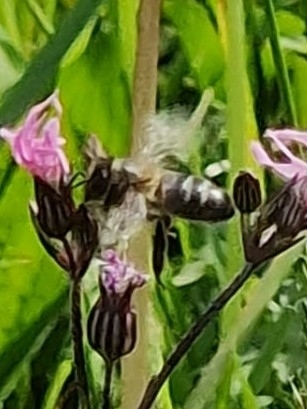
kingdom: Animalia
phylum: Arthropoda
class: Insecta
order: Hymenoptera
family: Apidae
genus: Apis
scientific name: Apis mellifera
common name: Honey bee
